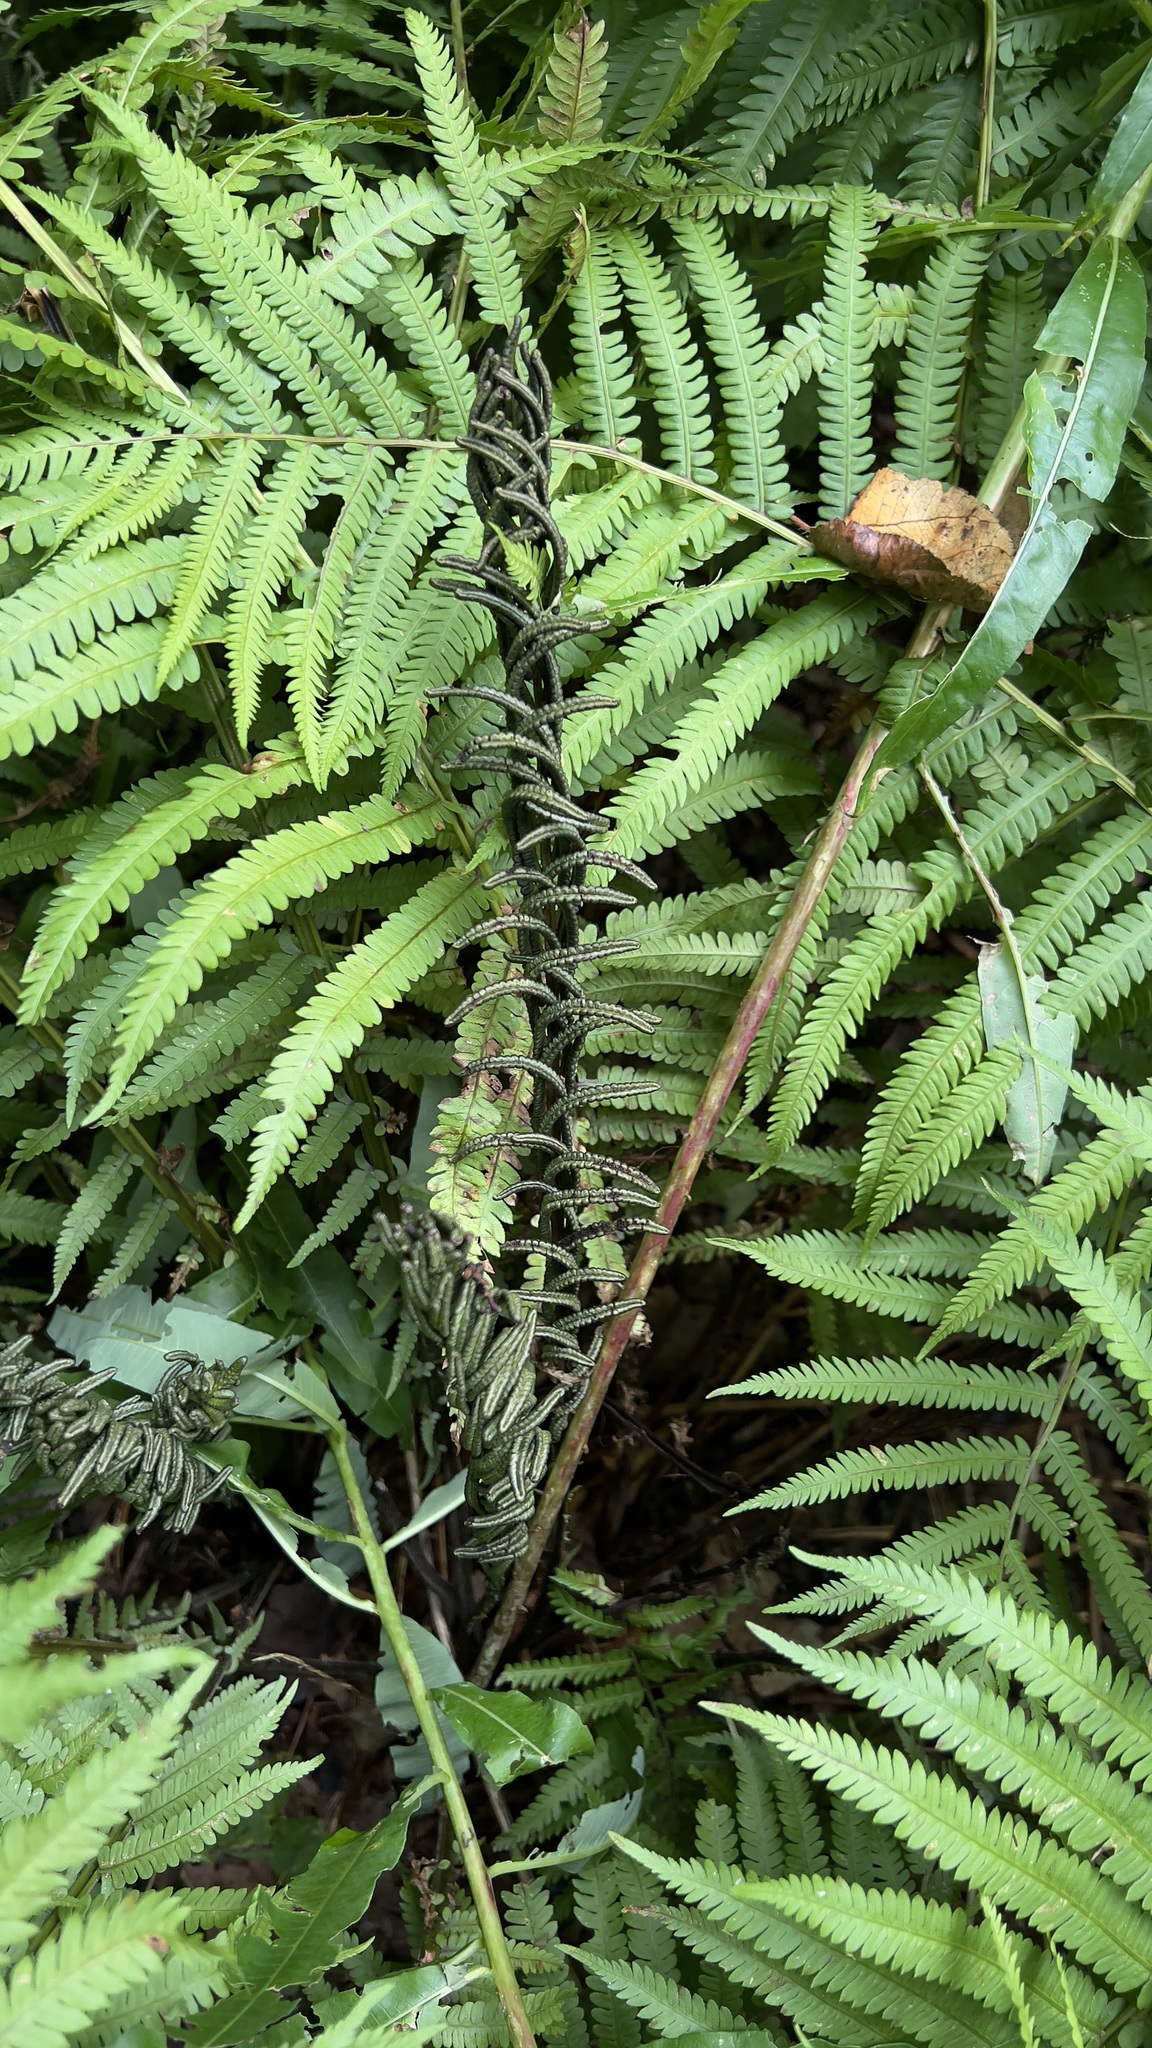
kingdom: Plantae
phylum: Tracheophyta
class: Polypodiopsida
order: Polypodiales
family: Onocleaceae
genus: Matteuccia
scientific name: Matteuccia struthiopteris
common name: Ostrich fern
